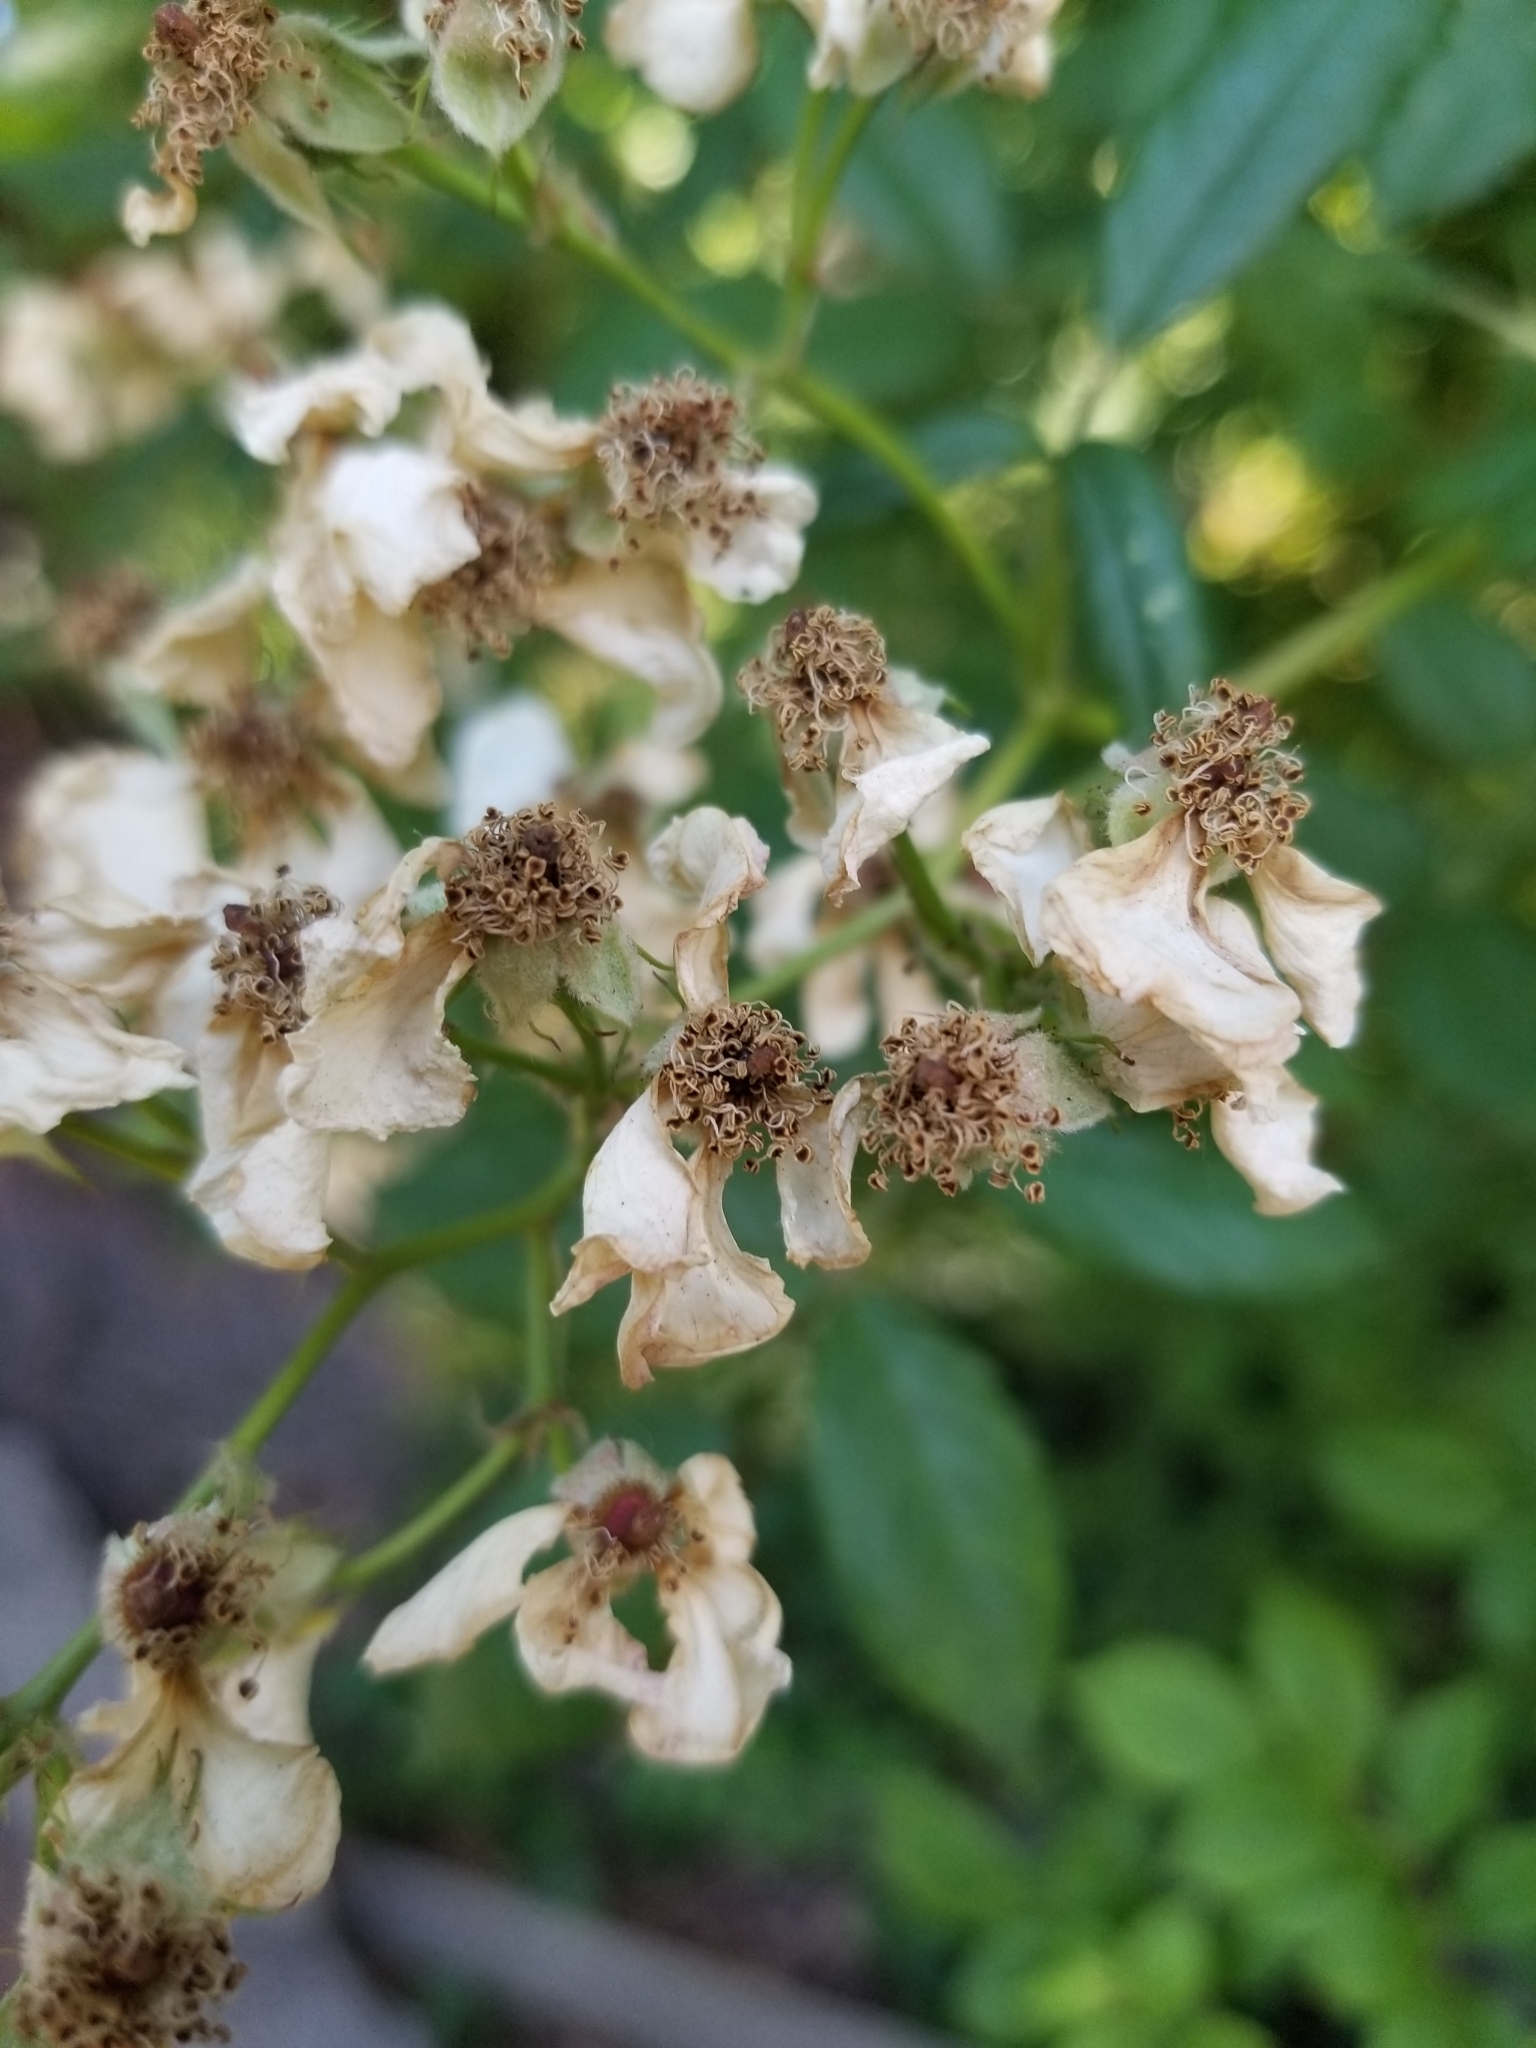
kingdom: Plantae
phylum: Tracheophyta
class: Magnoliopsida
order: Rosales
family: Rosaceae
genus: Rosa
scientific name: Rosa multiflora
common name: Multiflora rose
